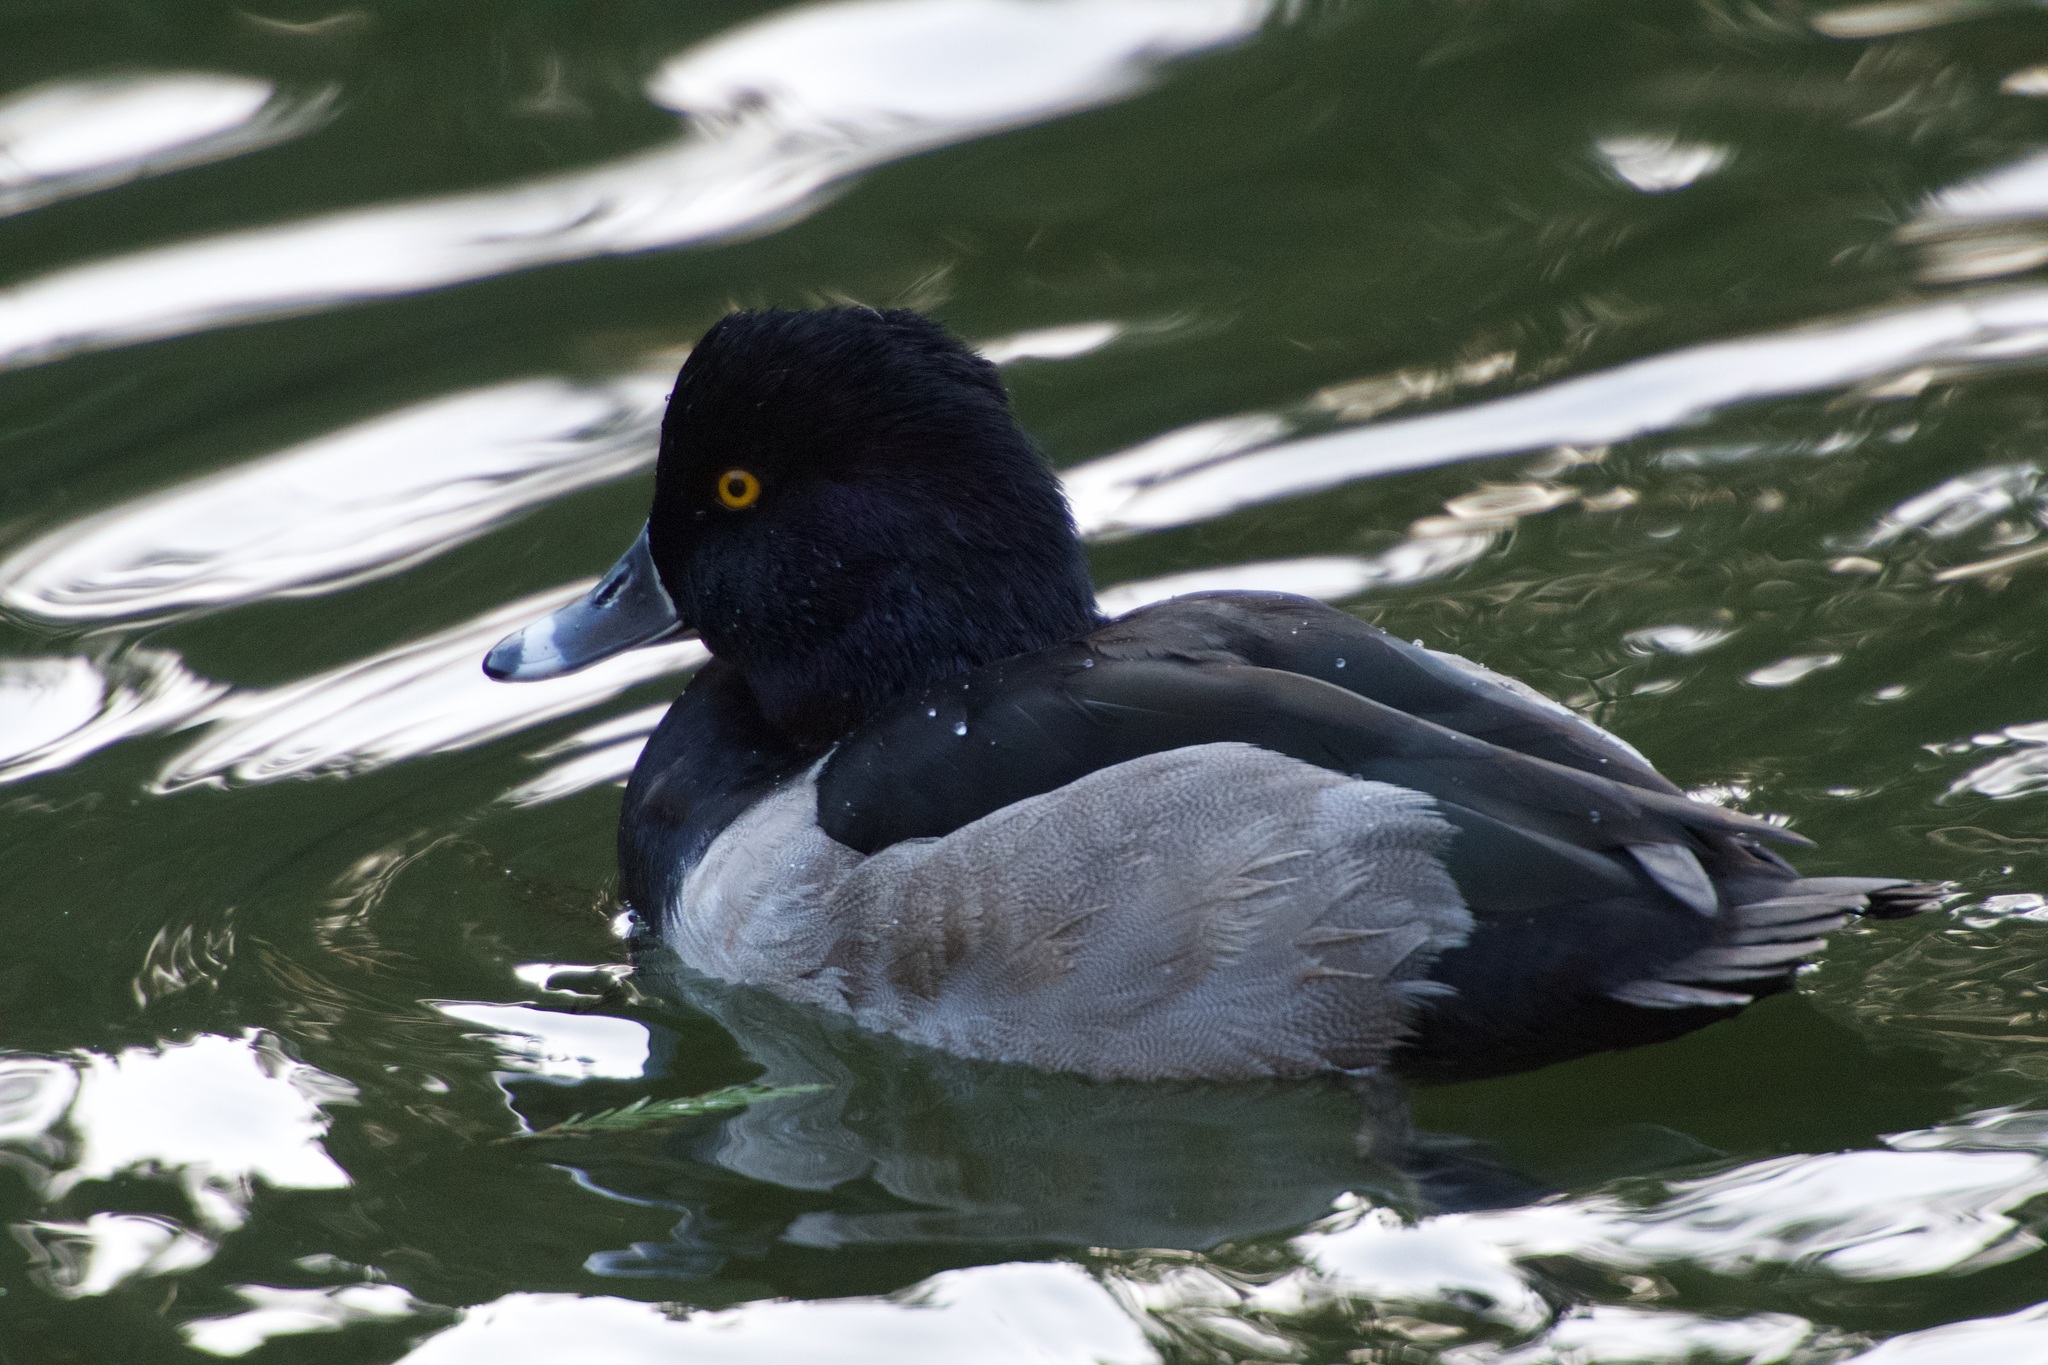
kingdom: Animalia
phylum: Chordata
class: Aves
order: Anseriformes
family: Anatidae
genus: Aythya
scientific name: Aythya collaris
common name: Ring-necked duck
